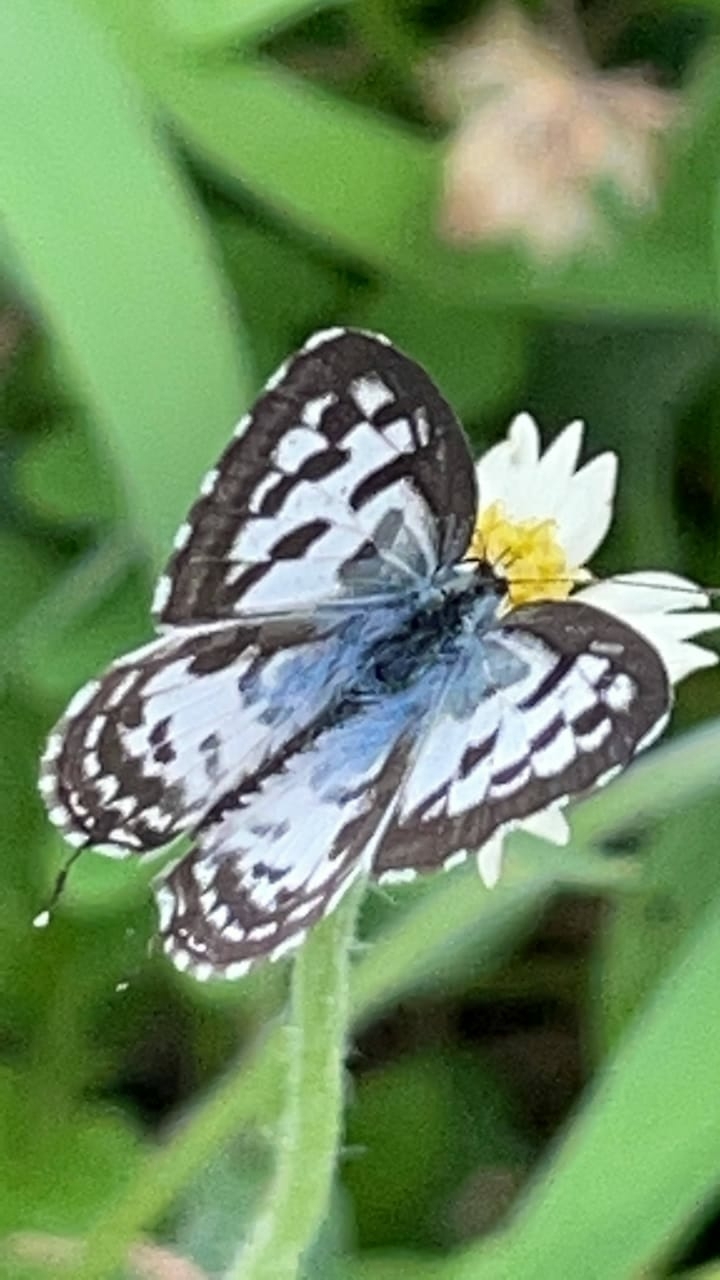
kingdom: Animalia
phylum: Arthropoda
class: Insecta
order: Lepidoptera
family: Lycaenidae
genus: Castalius
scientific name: Castalius rosimon
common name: Common pierrot
